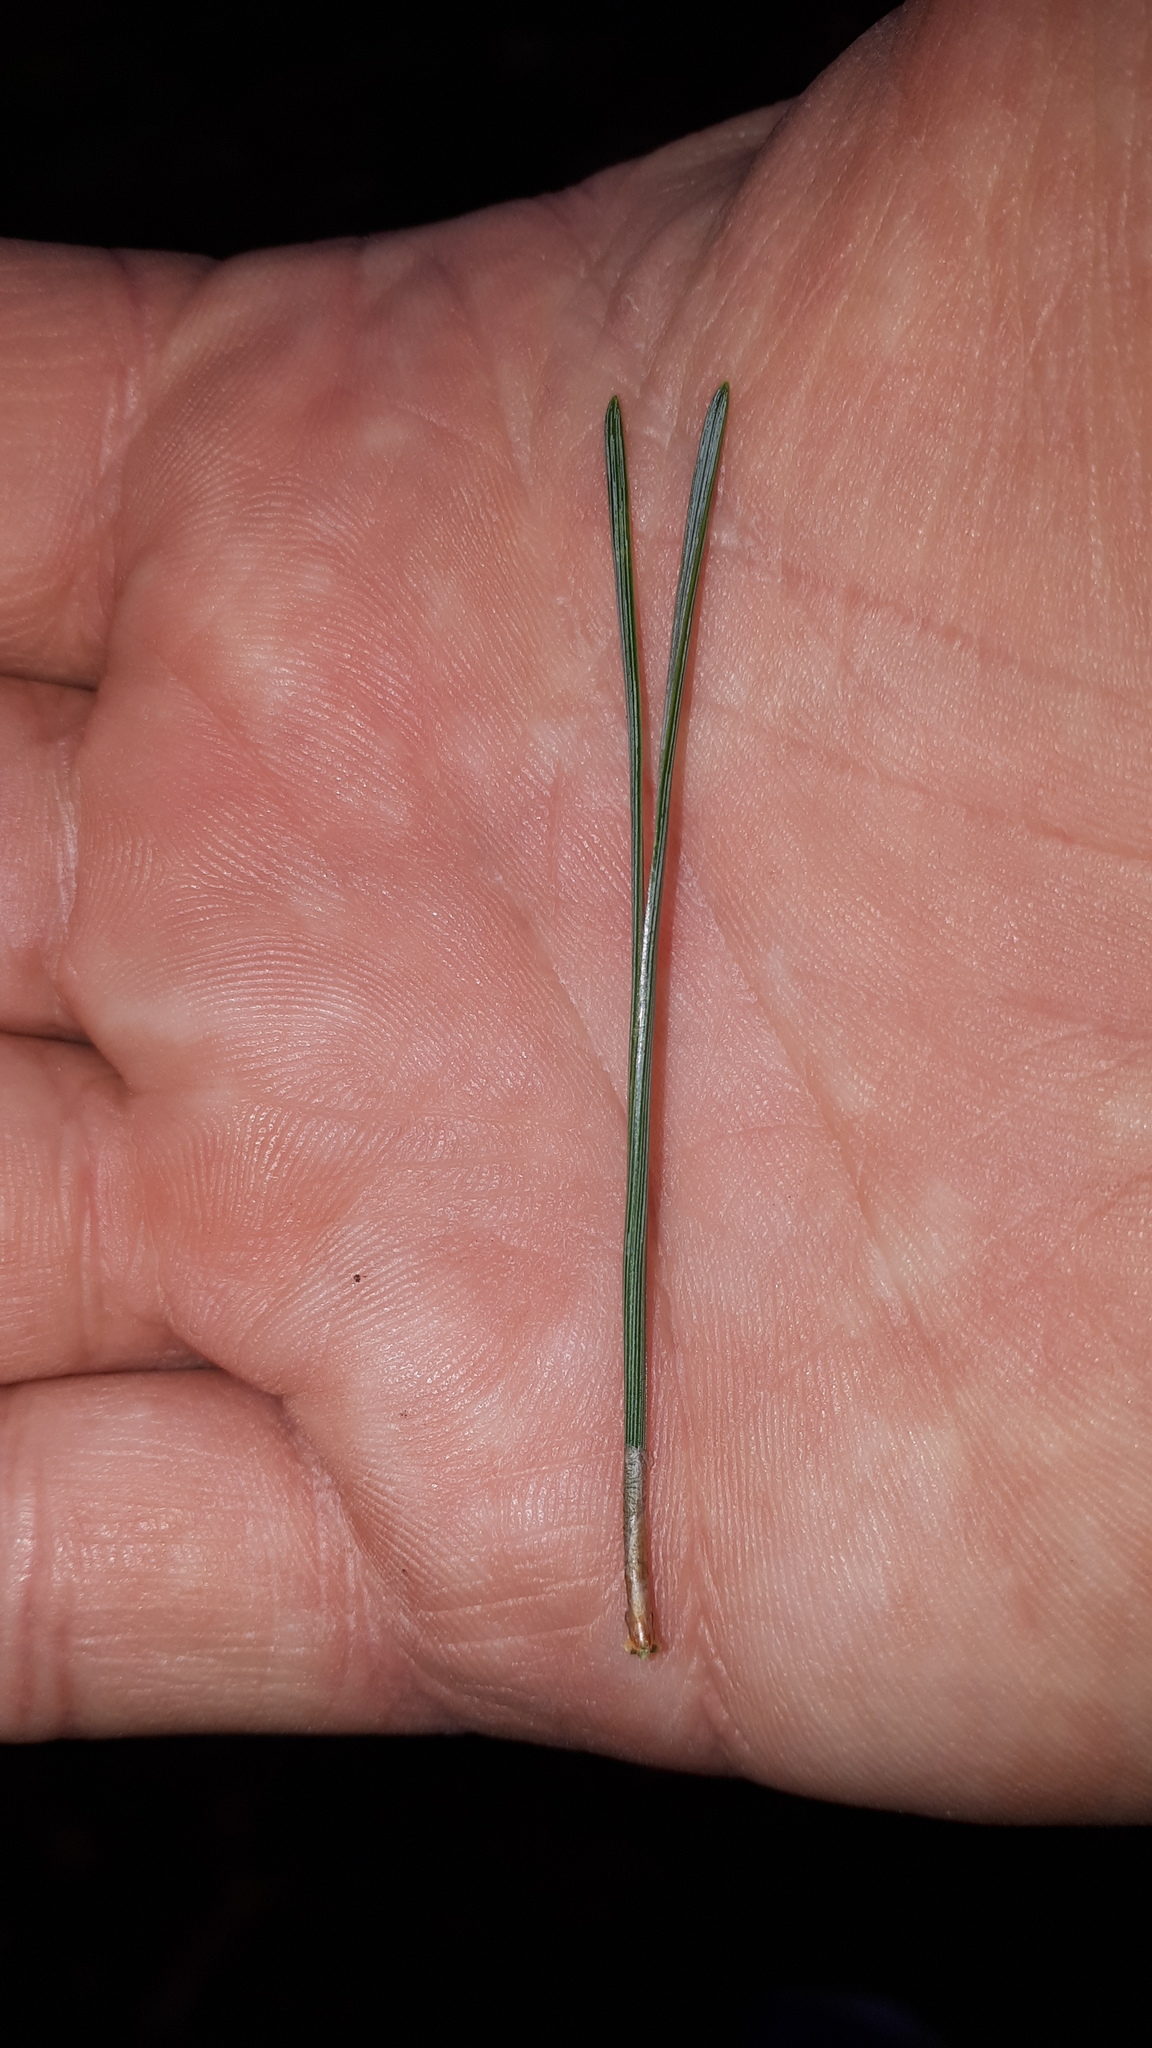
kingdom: Plantae
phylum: Tracheophyta
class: Pinopsida
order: Pinales
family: Pinaceae
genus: Pinus
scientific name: Pinus sylvestris
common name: Scots pine
